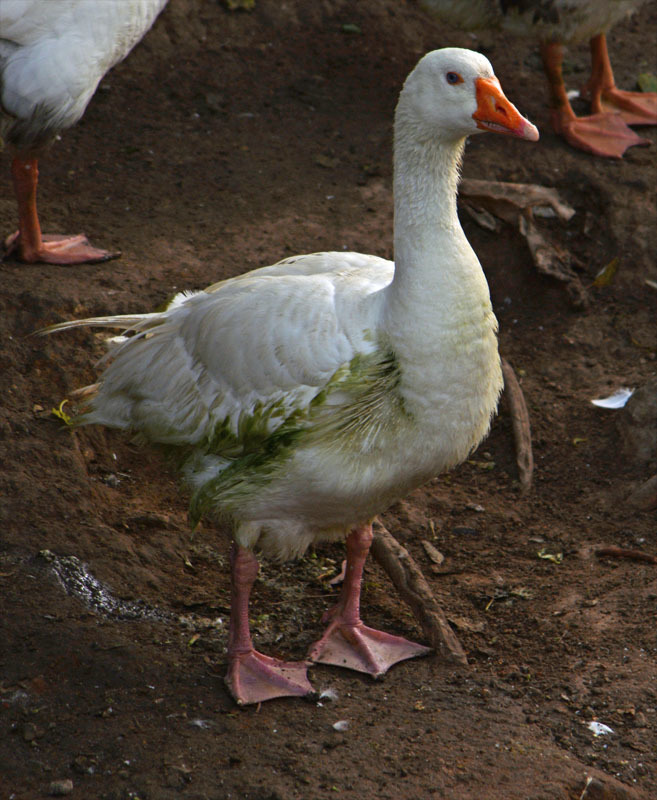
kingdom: Animalia
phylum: Chordata
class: Aves
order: Anseriformes
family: Anatidae
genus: Anser
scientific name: Anser anser
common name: Greylag goose
